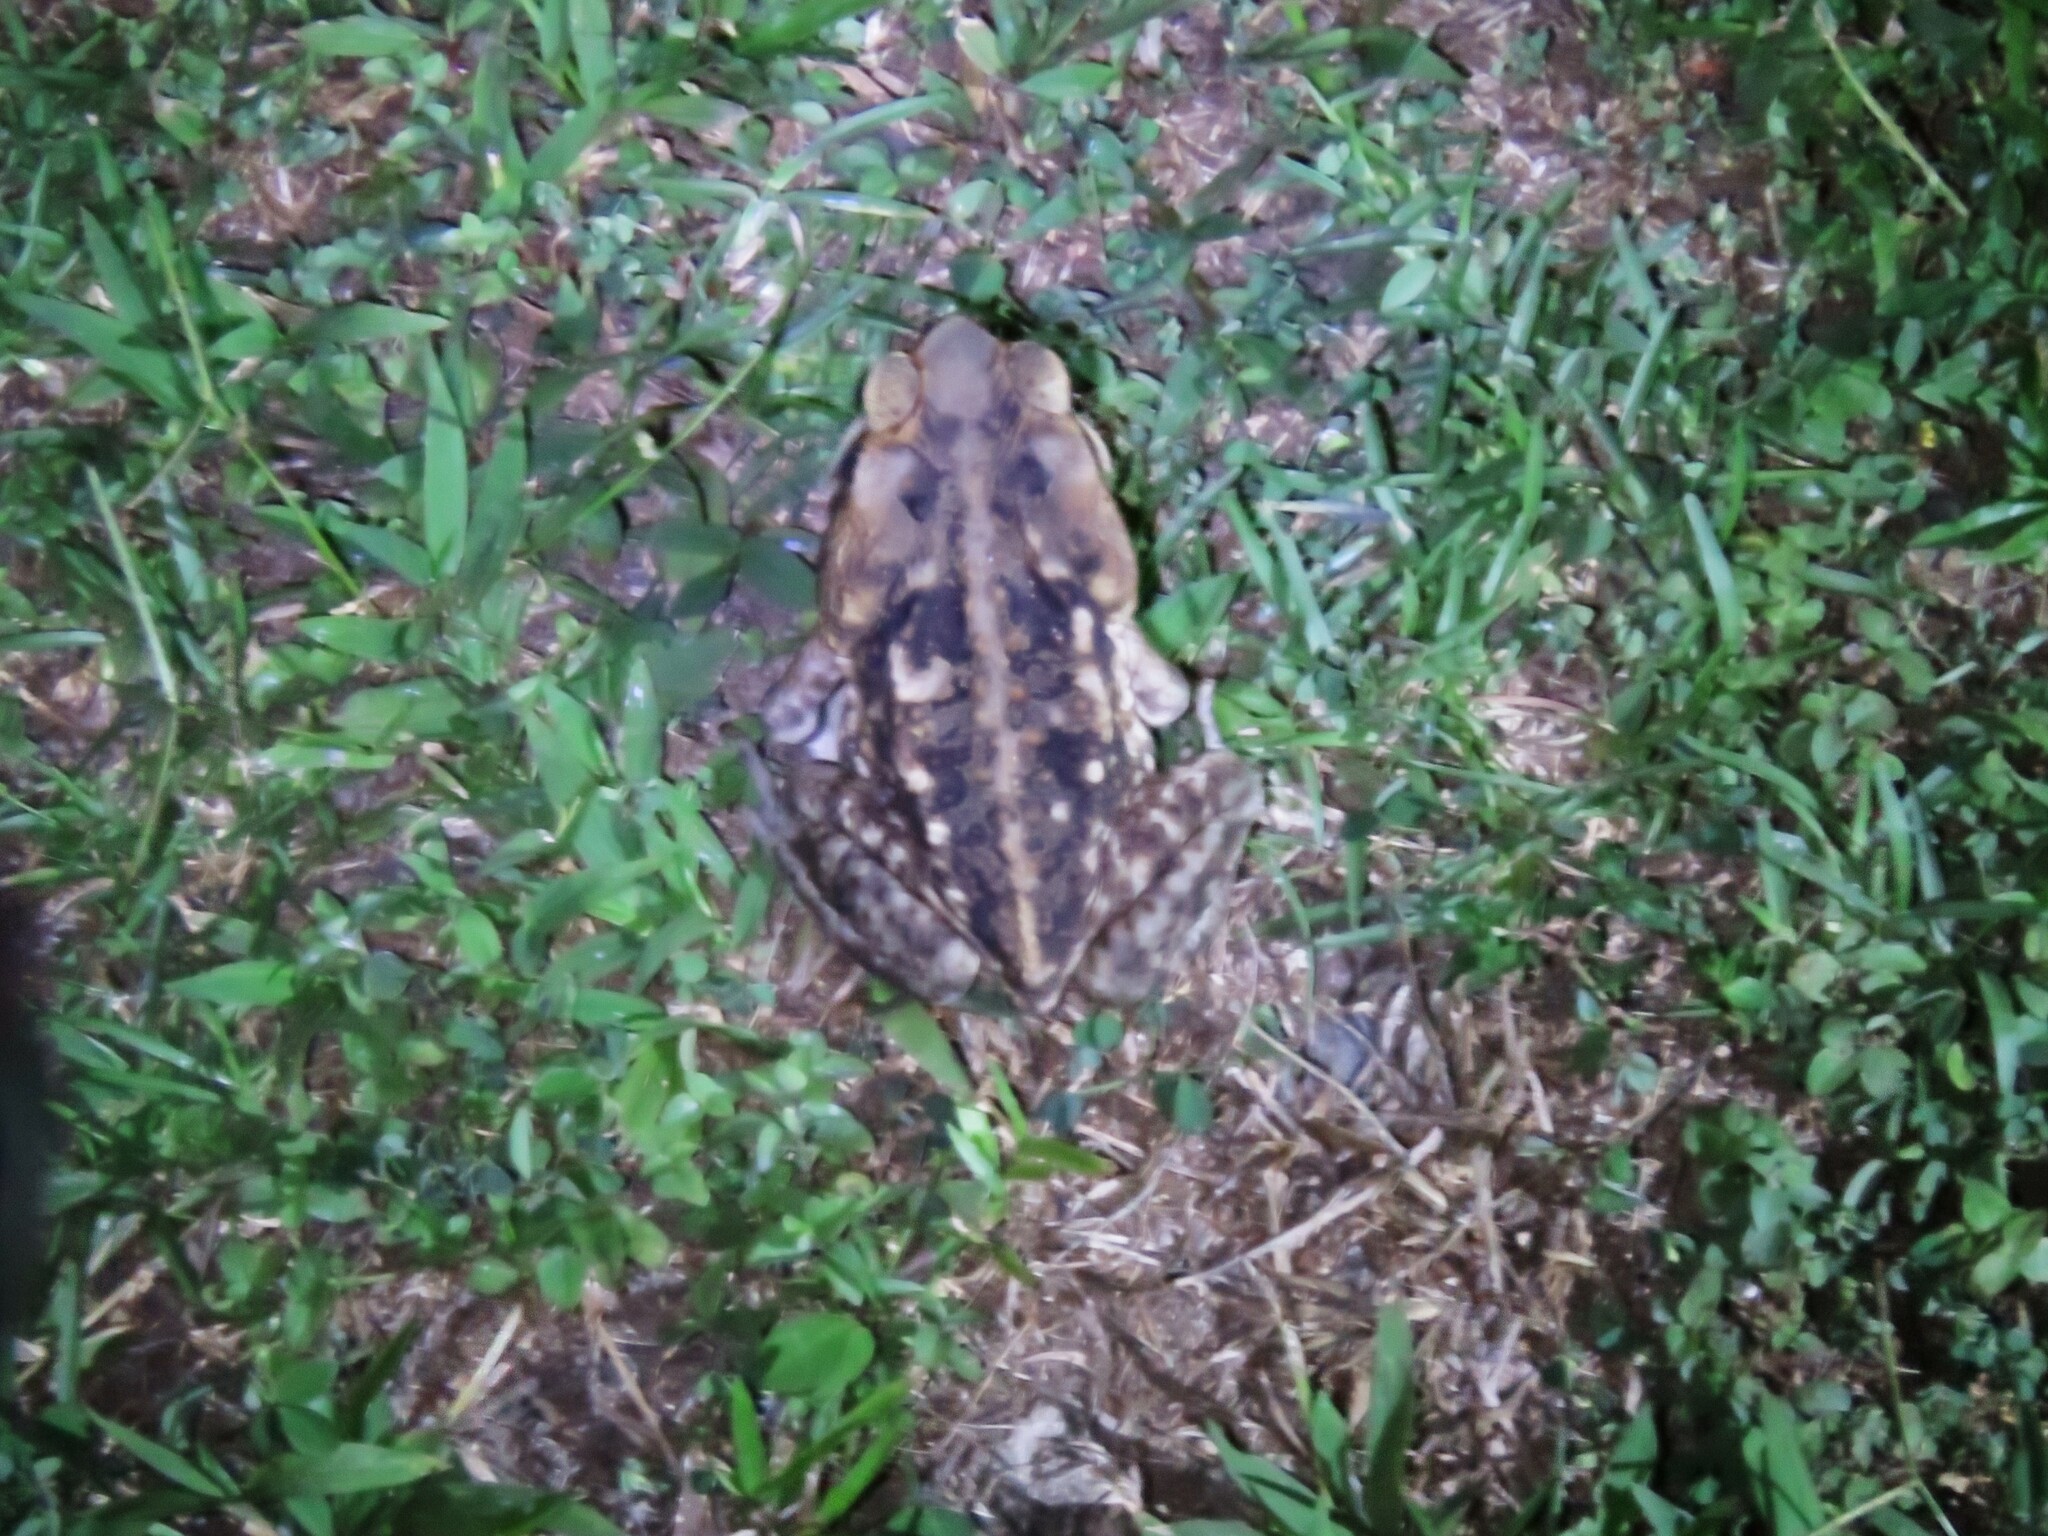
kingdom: Animalia
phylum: Chordata
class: Amphibia
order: Anura
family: Bufonidae
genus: Rhinella
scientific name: Rhinella horribilis
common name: Mesoamerican cane toad
